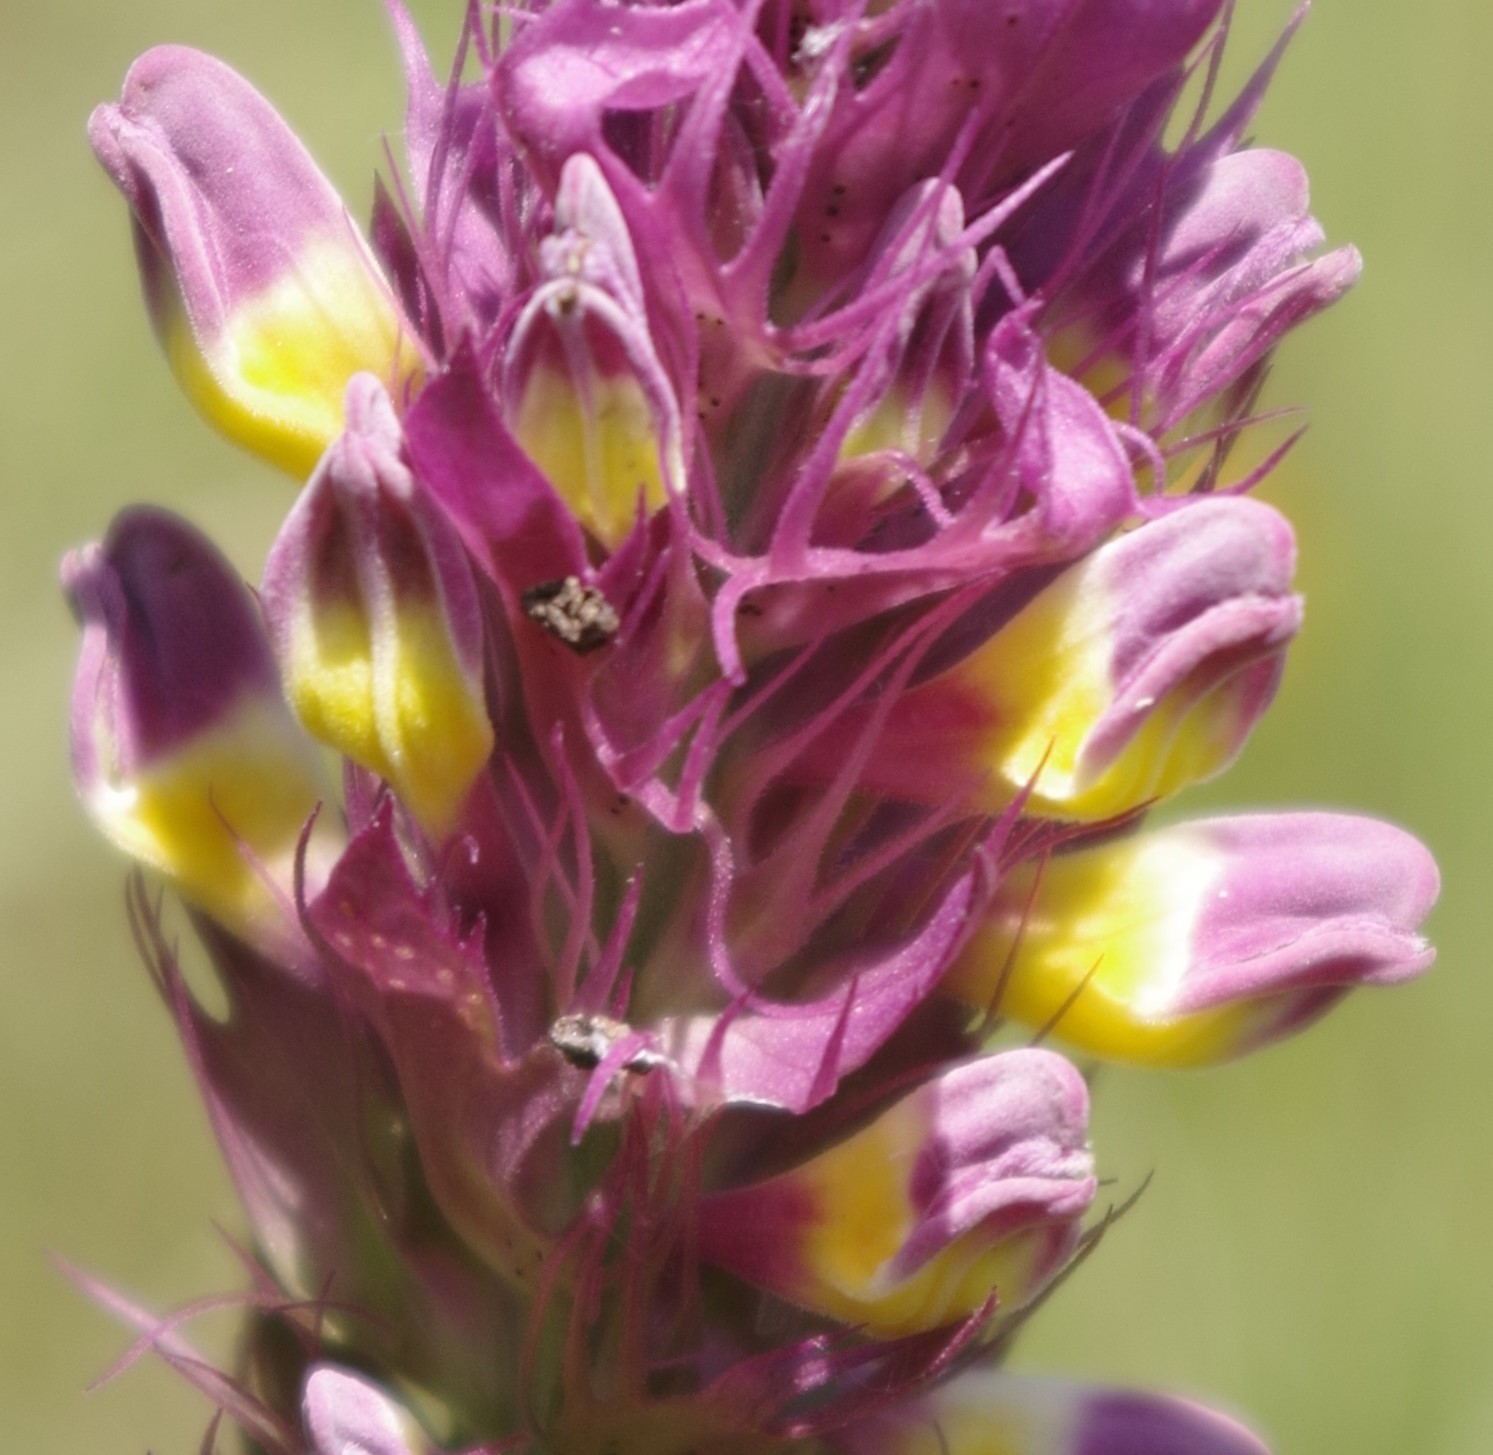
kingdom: Plantae
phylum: Tracheophyta
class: Magnoliopsida
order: Lamiales
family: Orobanchaceae
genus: Melampyrum
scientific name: Melampyrum arvense
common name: Field cow-wheat
